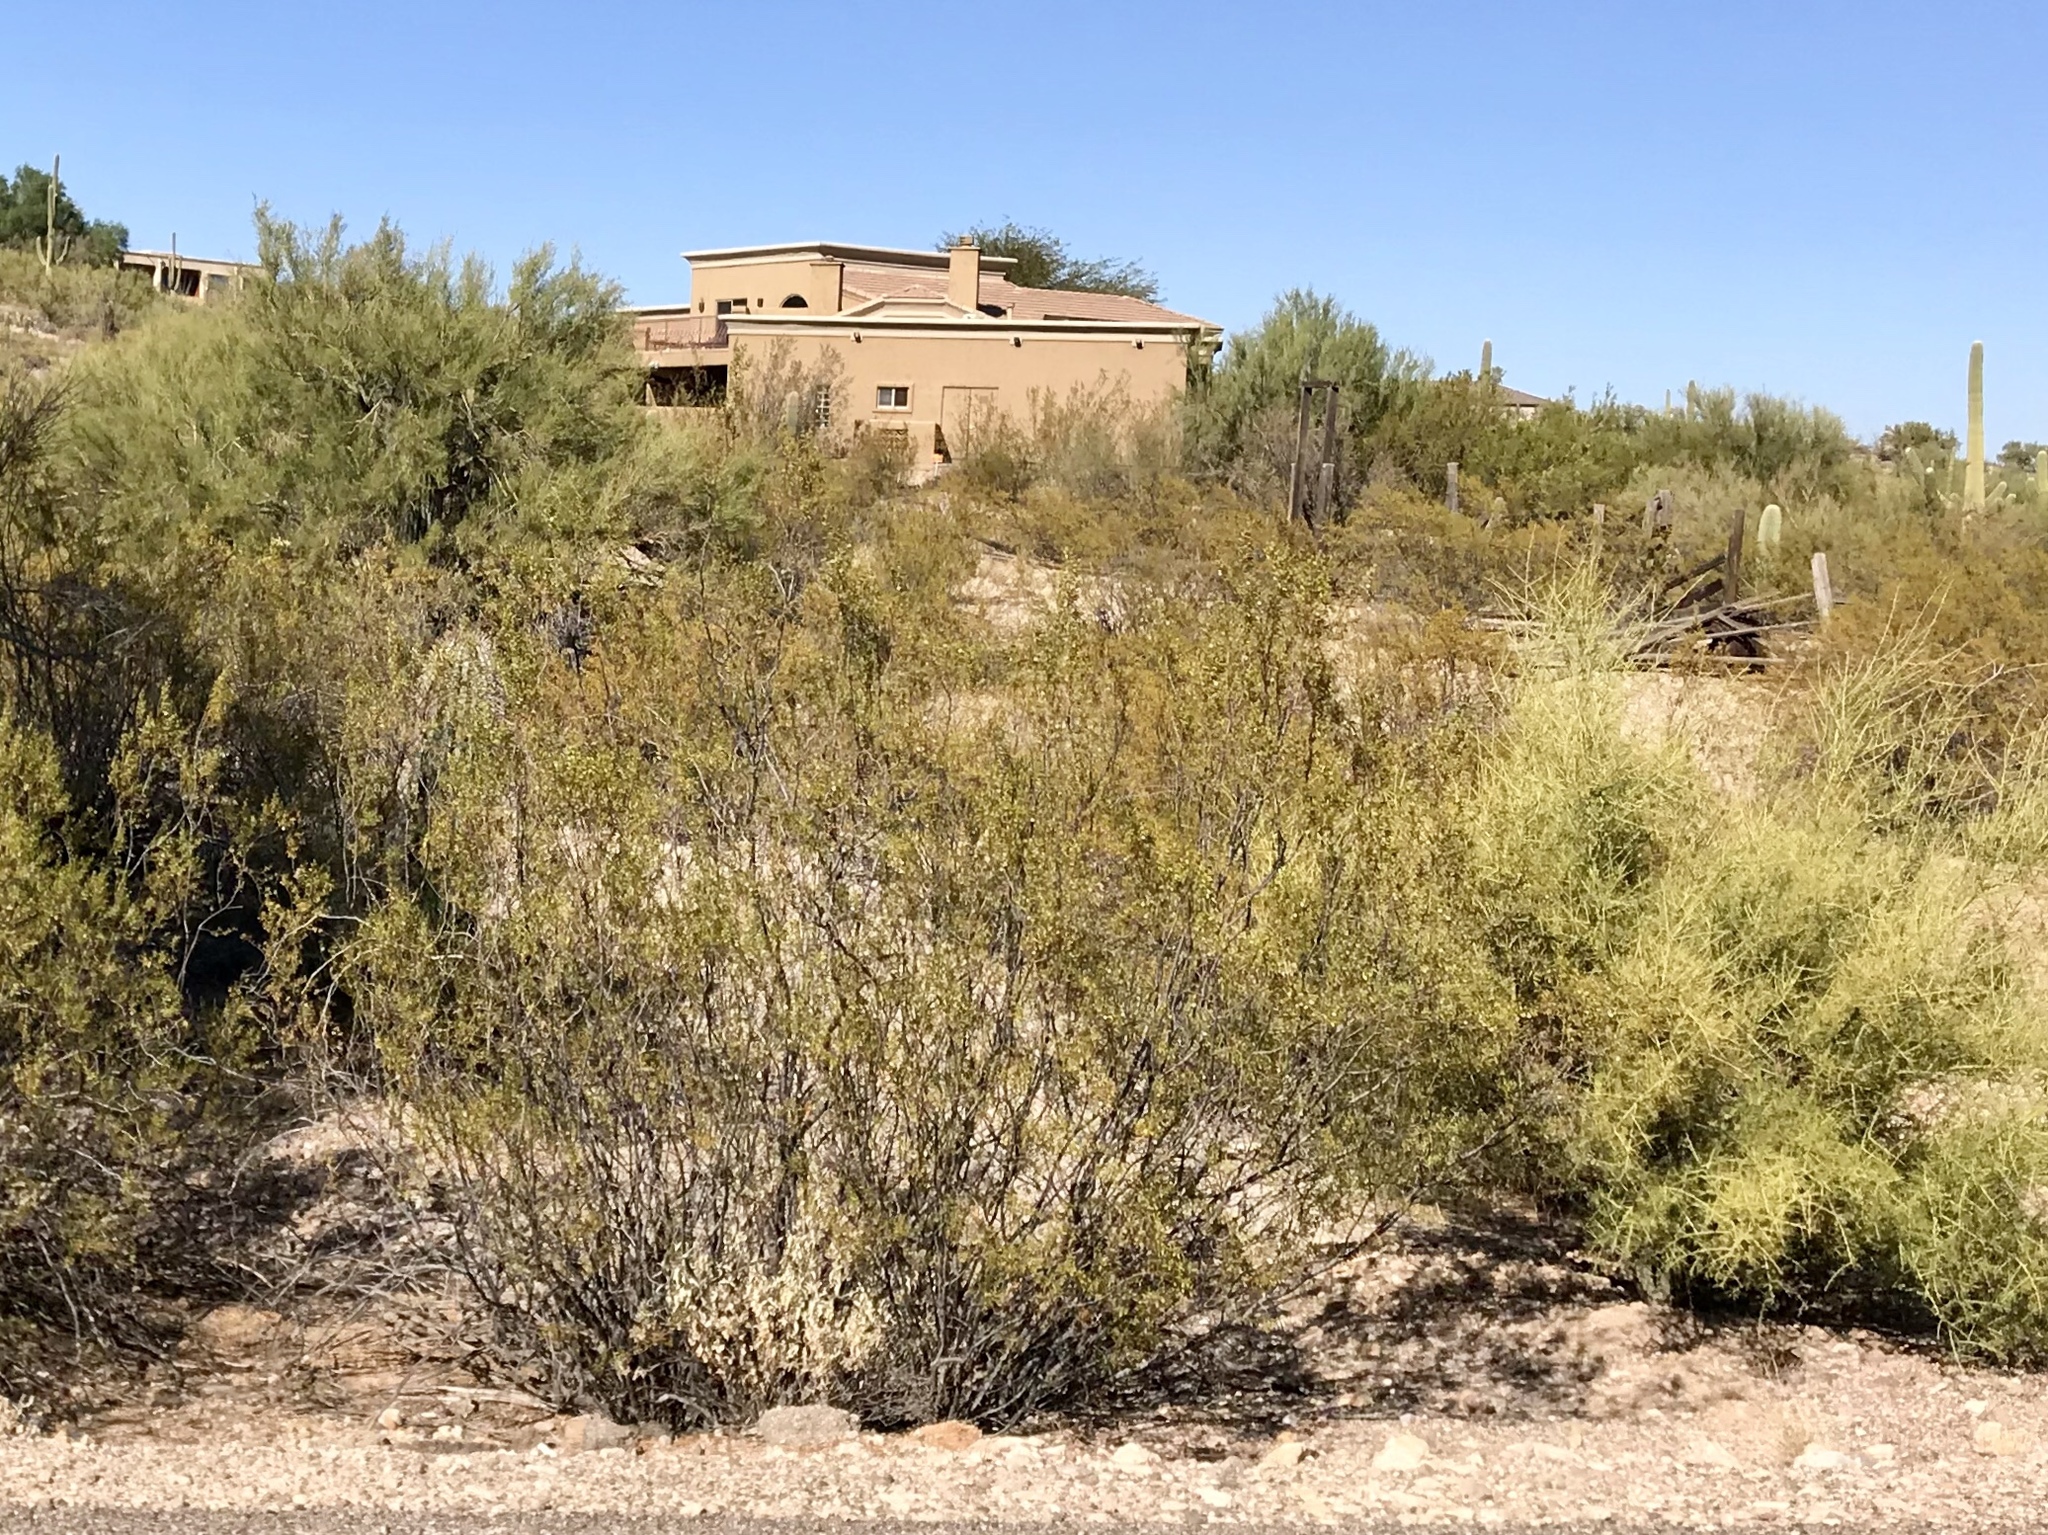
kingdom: Plantae
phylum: Tracheophyta
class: Magnoliopsida
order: Zygophyllales
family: Zygophyllaceae
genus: Larrea
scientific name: Larrea tridentata
